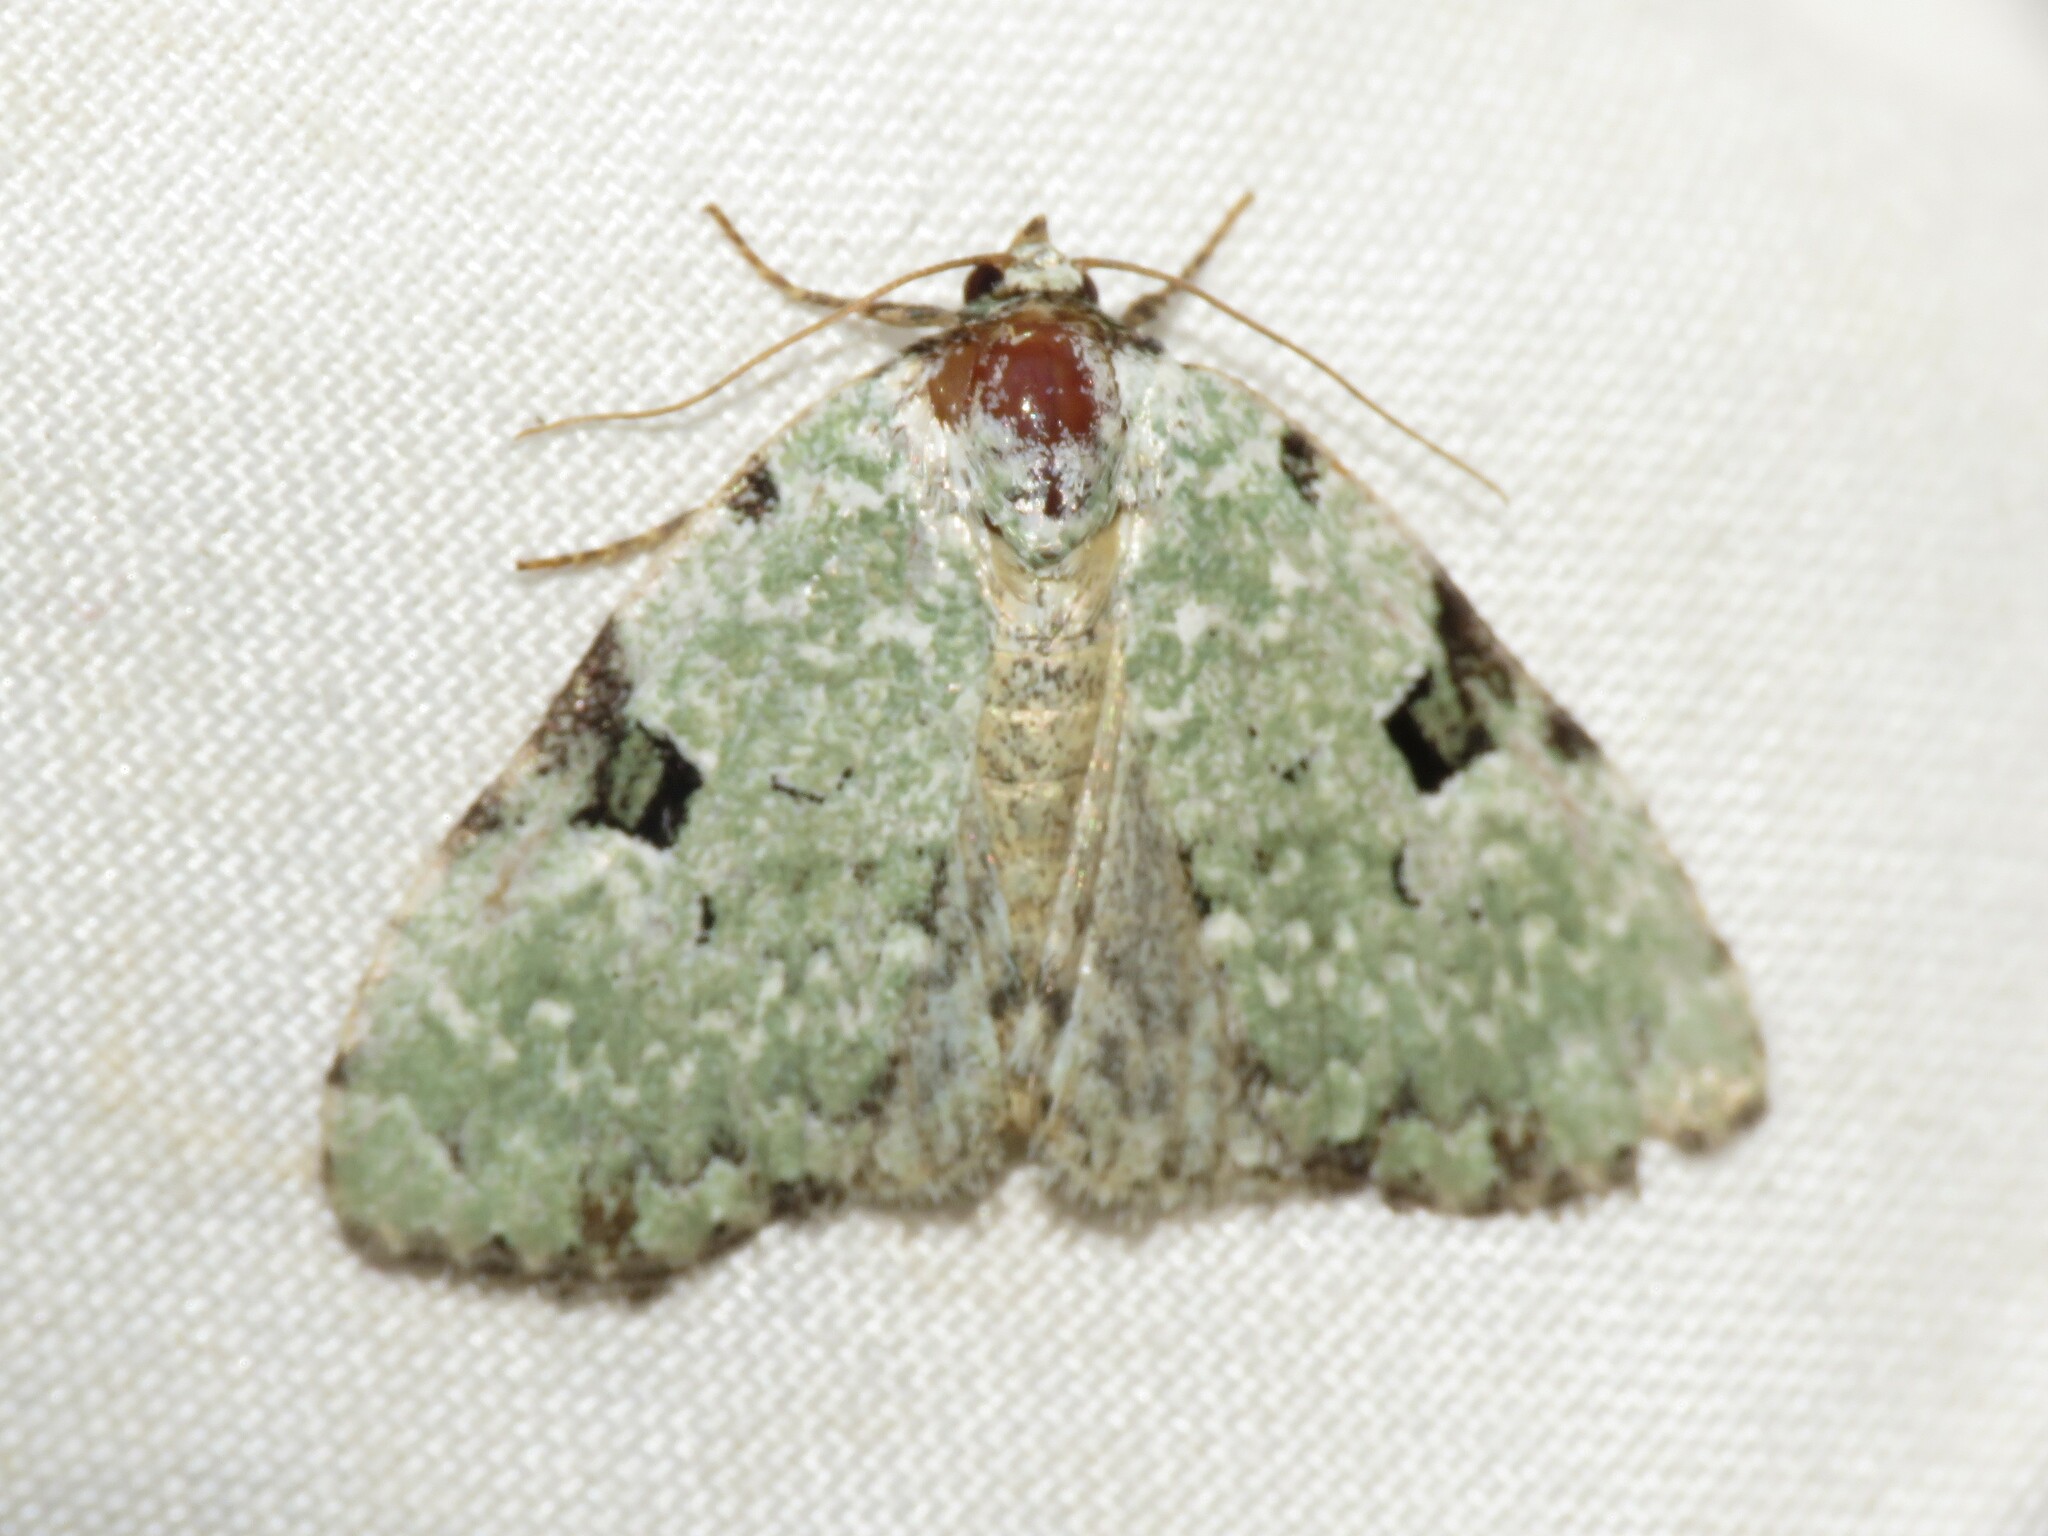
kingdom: Animalia
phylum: Arthropoda
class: Insecta
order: Lepidoptera
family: Noctuidae
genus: Leuconycta
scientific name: Leuconycta diphteroides
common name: Green leuconycta moth
